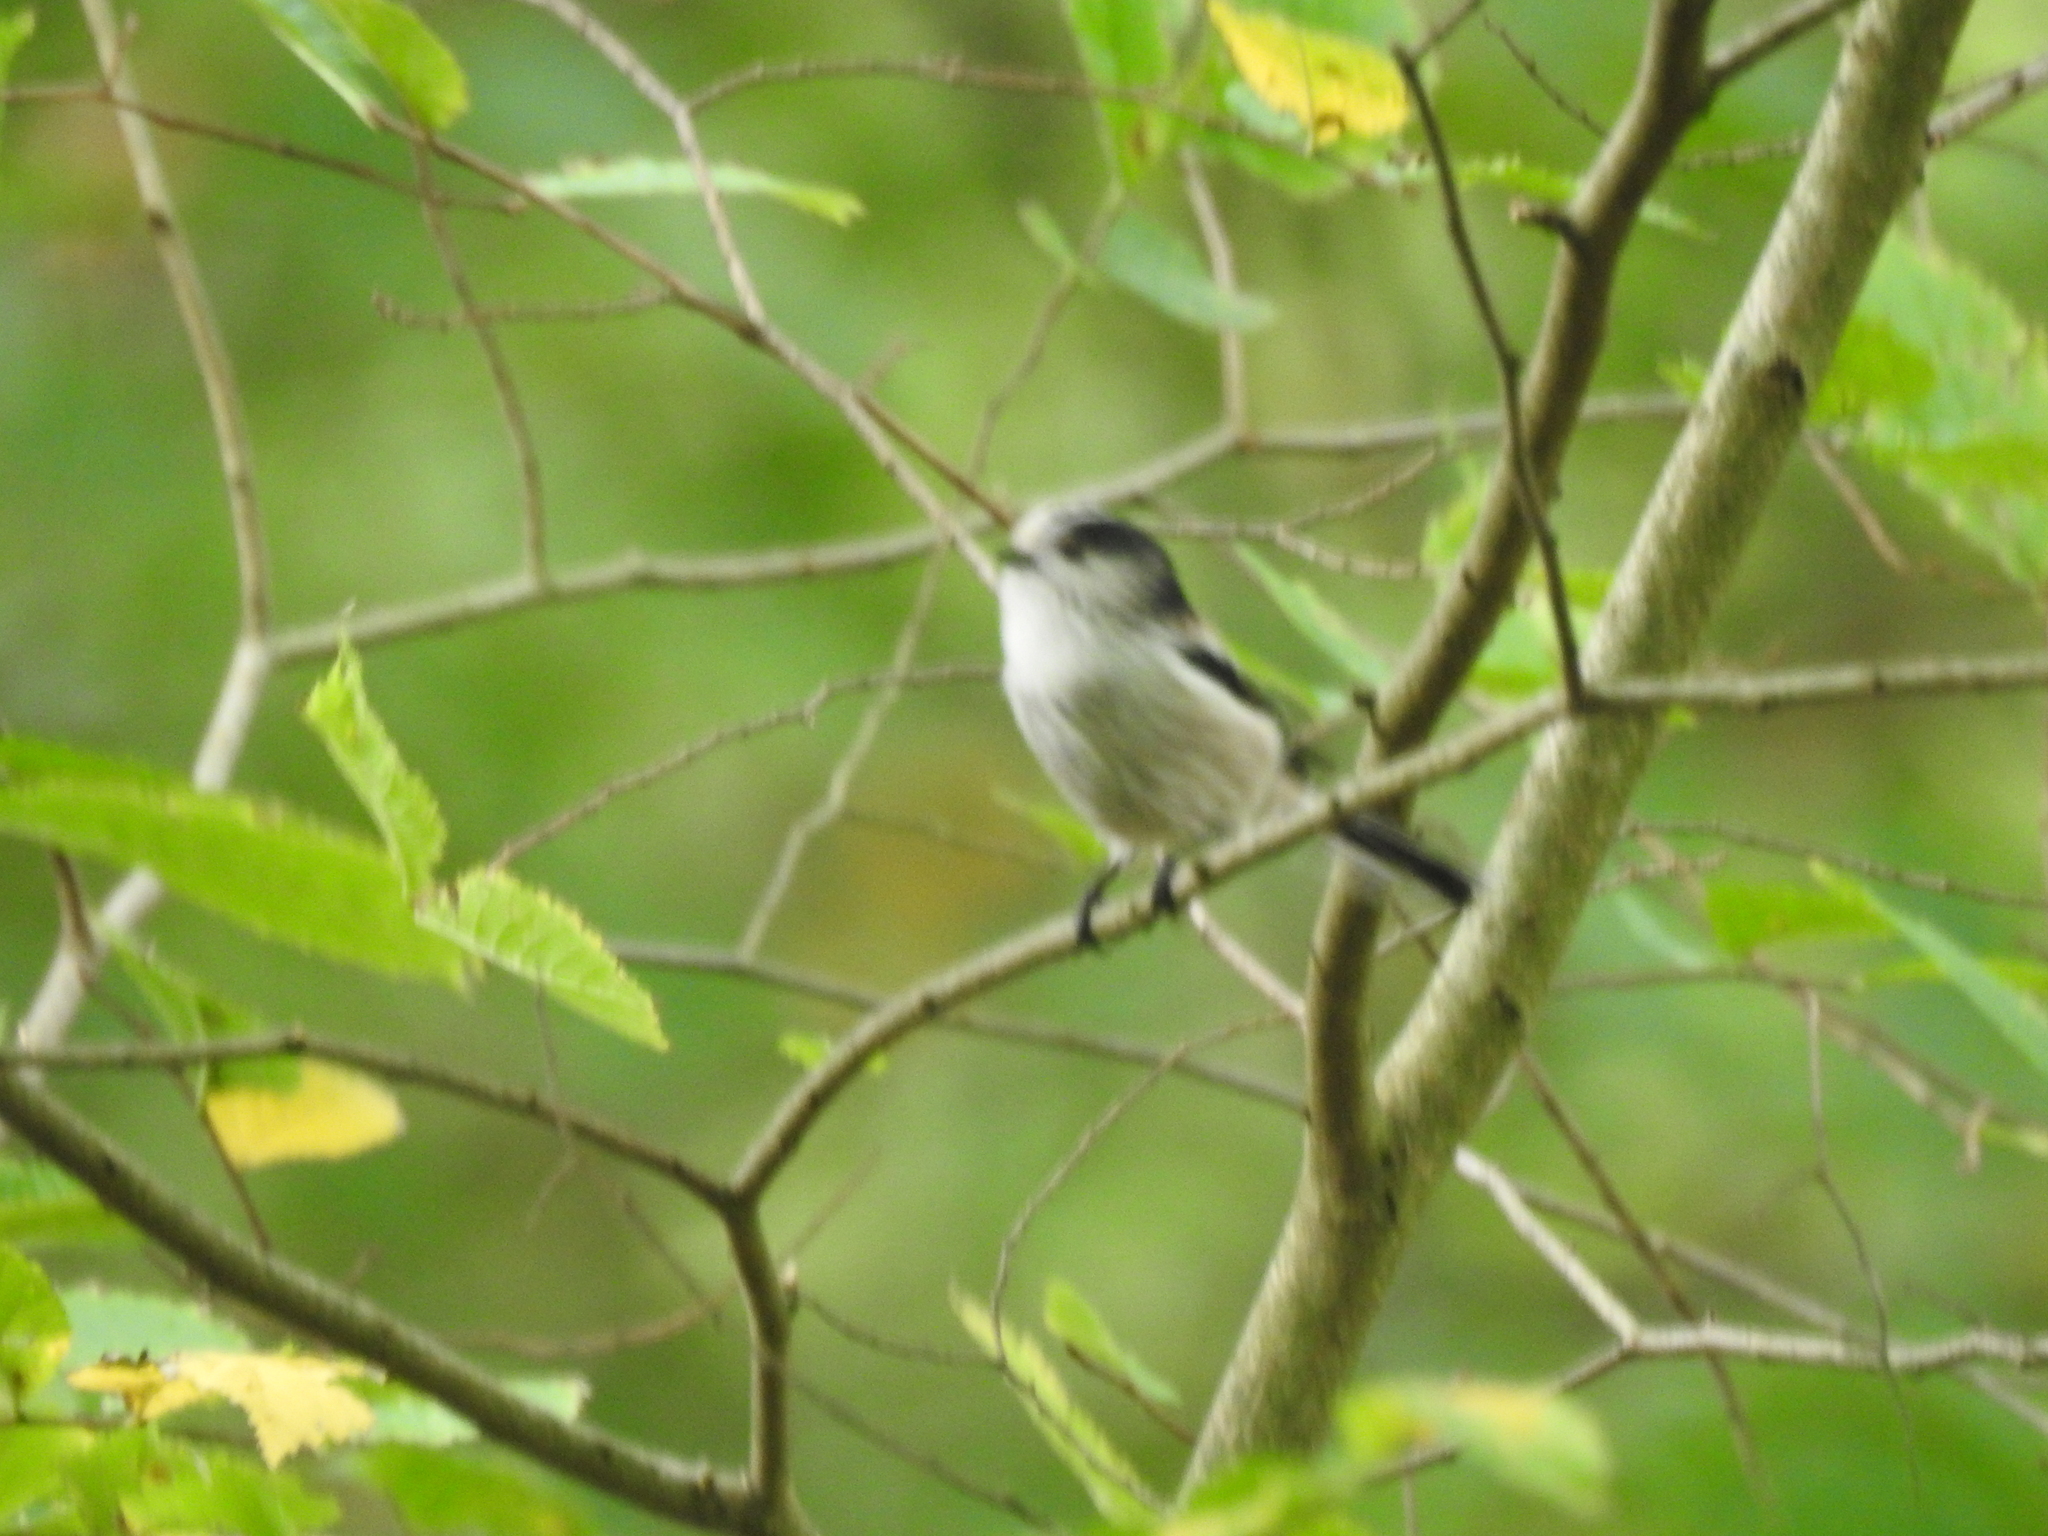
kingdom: Animalia
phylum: Chordata
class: Aves
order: Passeriformes
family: Aegithalidae
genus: Aegithalos
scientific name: Aegithalos caudatus
